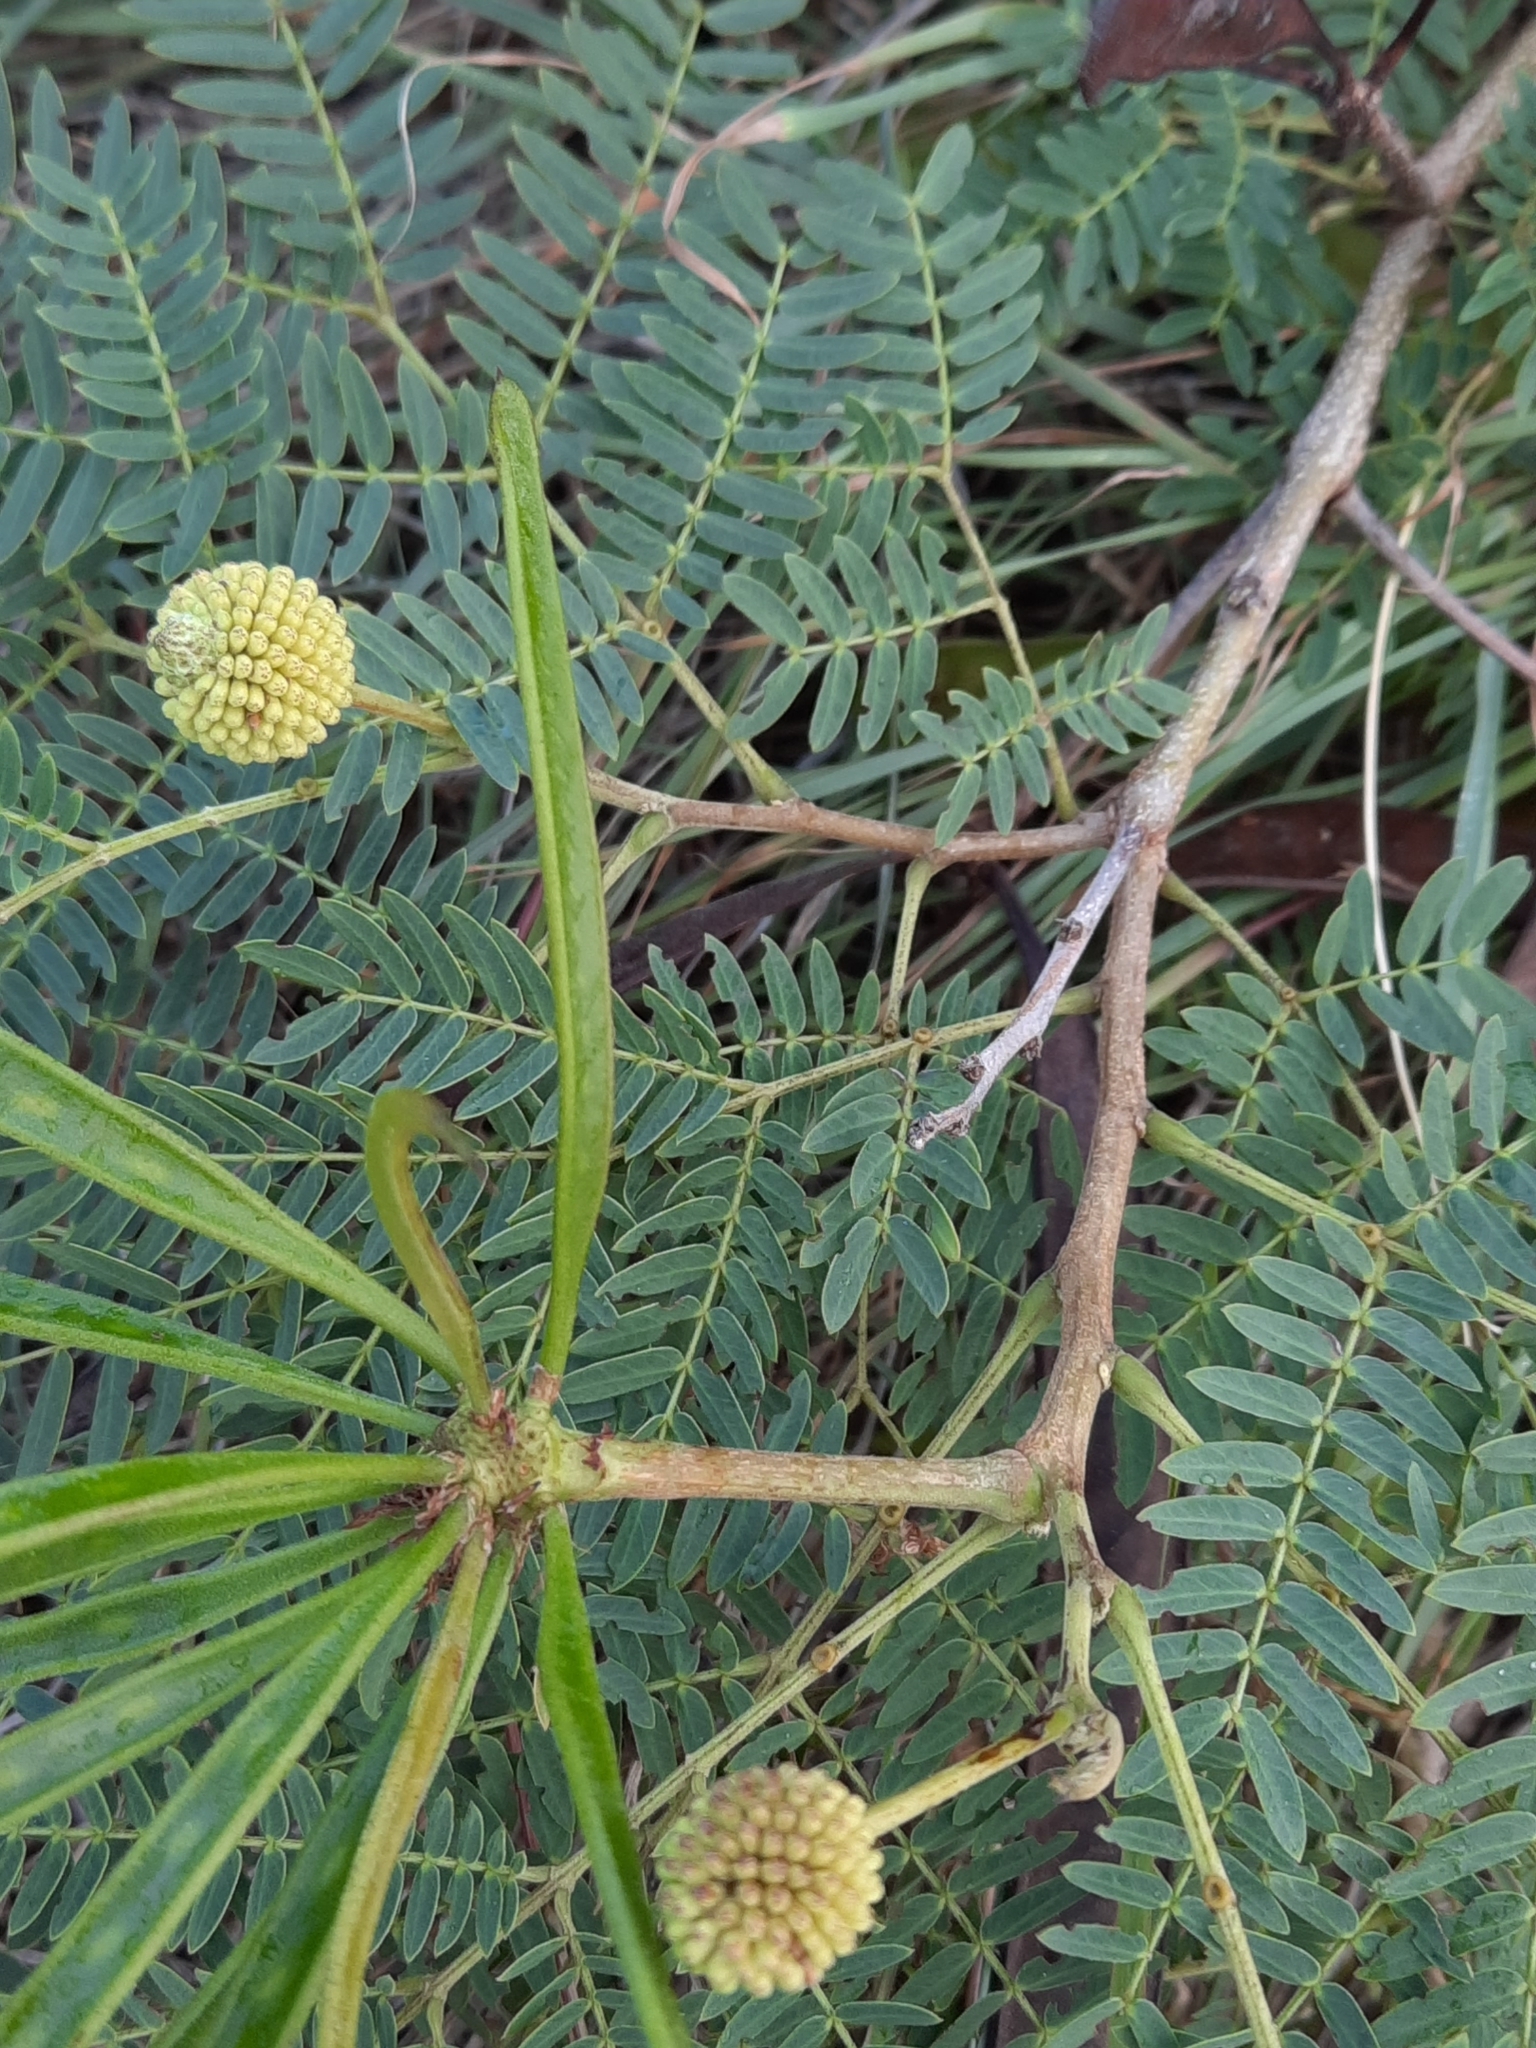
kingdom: Plantae
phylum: Tracheophyta
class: Magnoliopsida
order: Fabales
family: Fabaceae
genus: Leucaena
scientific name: Leucaena leucocephala
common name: White leadtree
